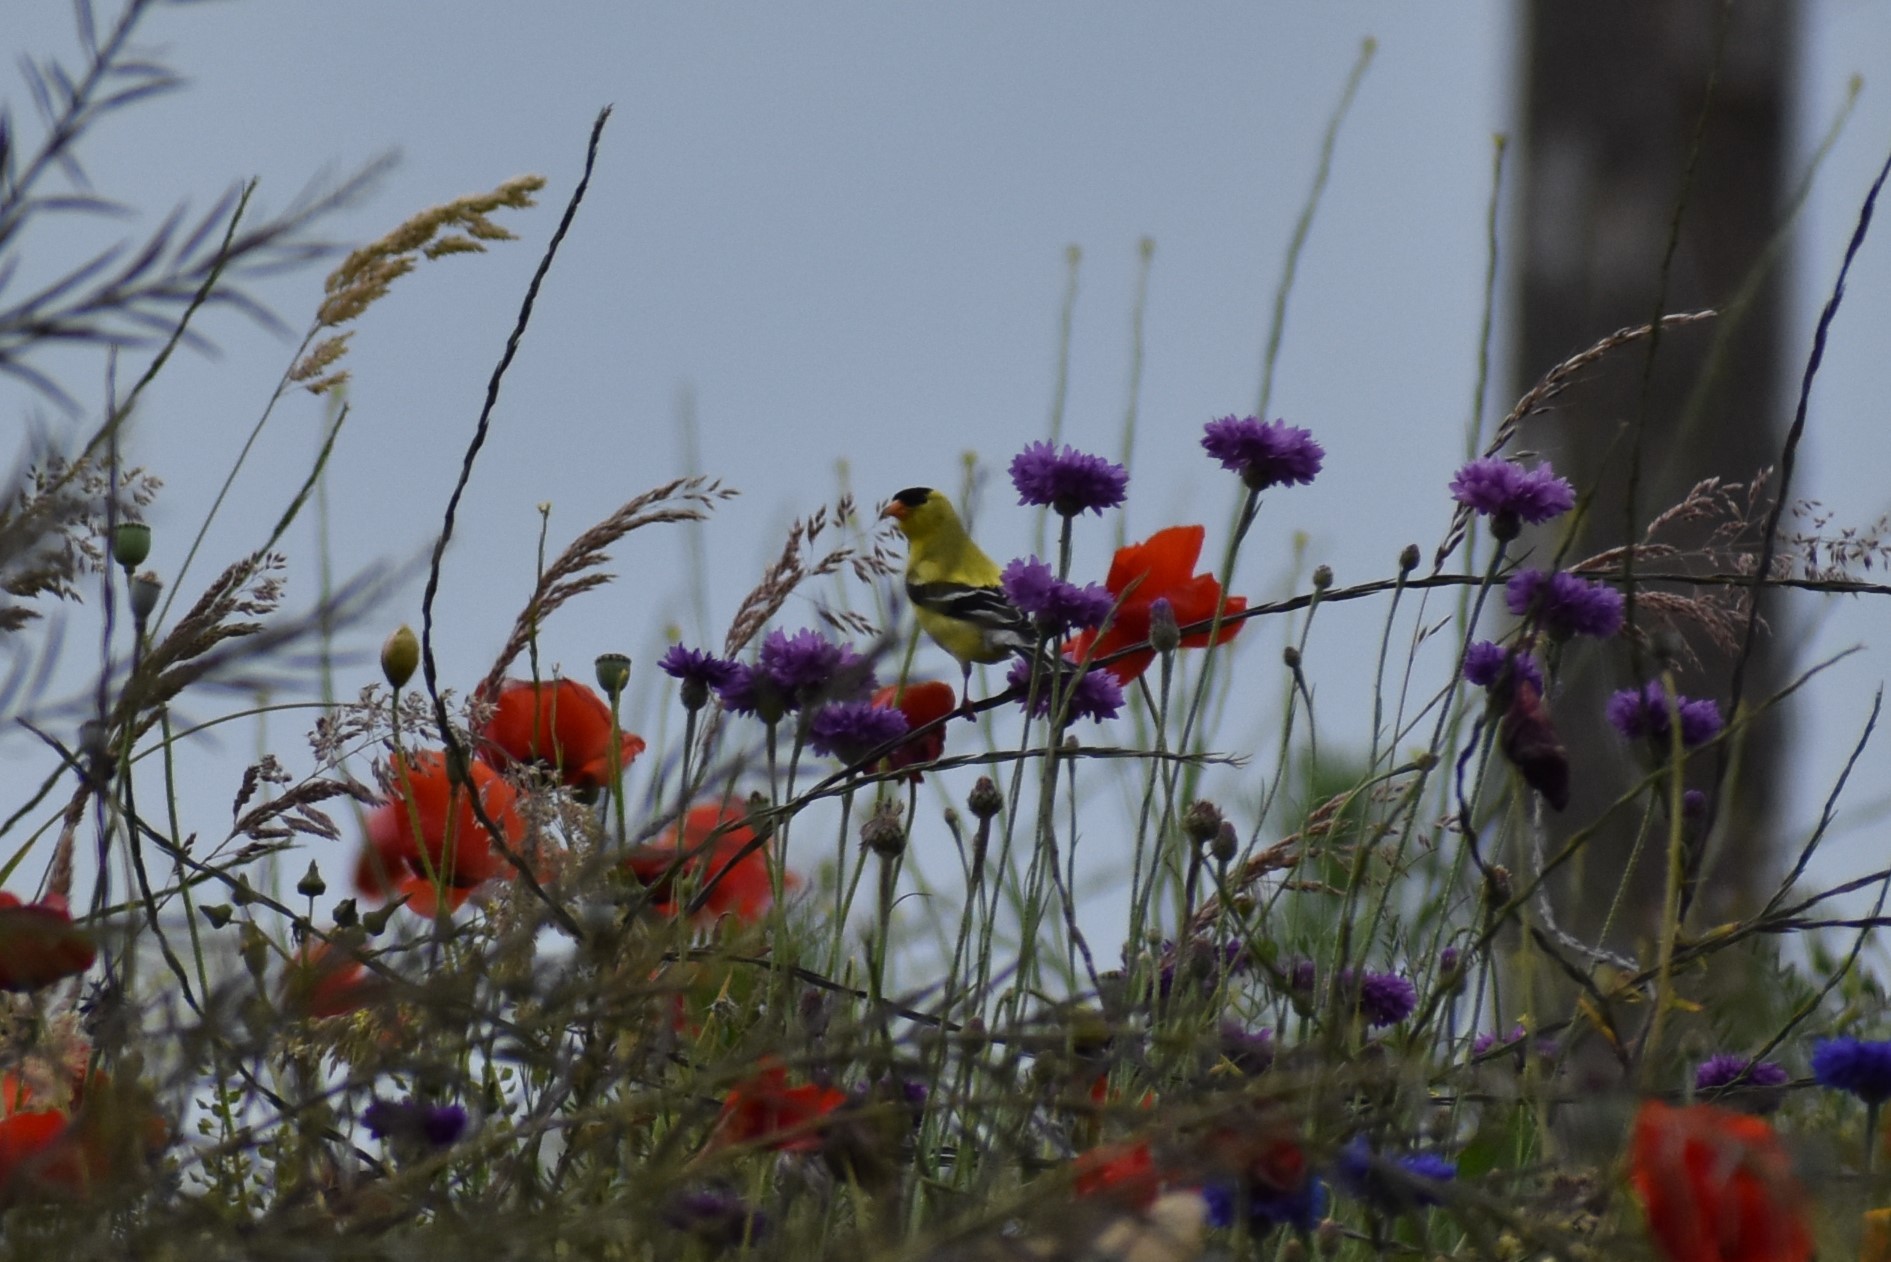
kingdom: Animalia
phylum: Chordata
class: Aves
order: Passeriformes
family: Fringillidae
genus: Spinus
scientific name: Spinus tristis
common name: American goldfinch
